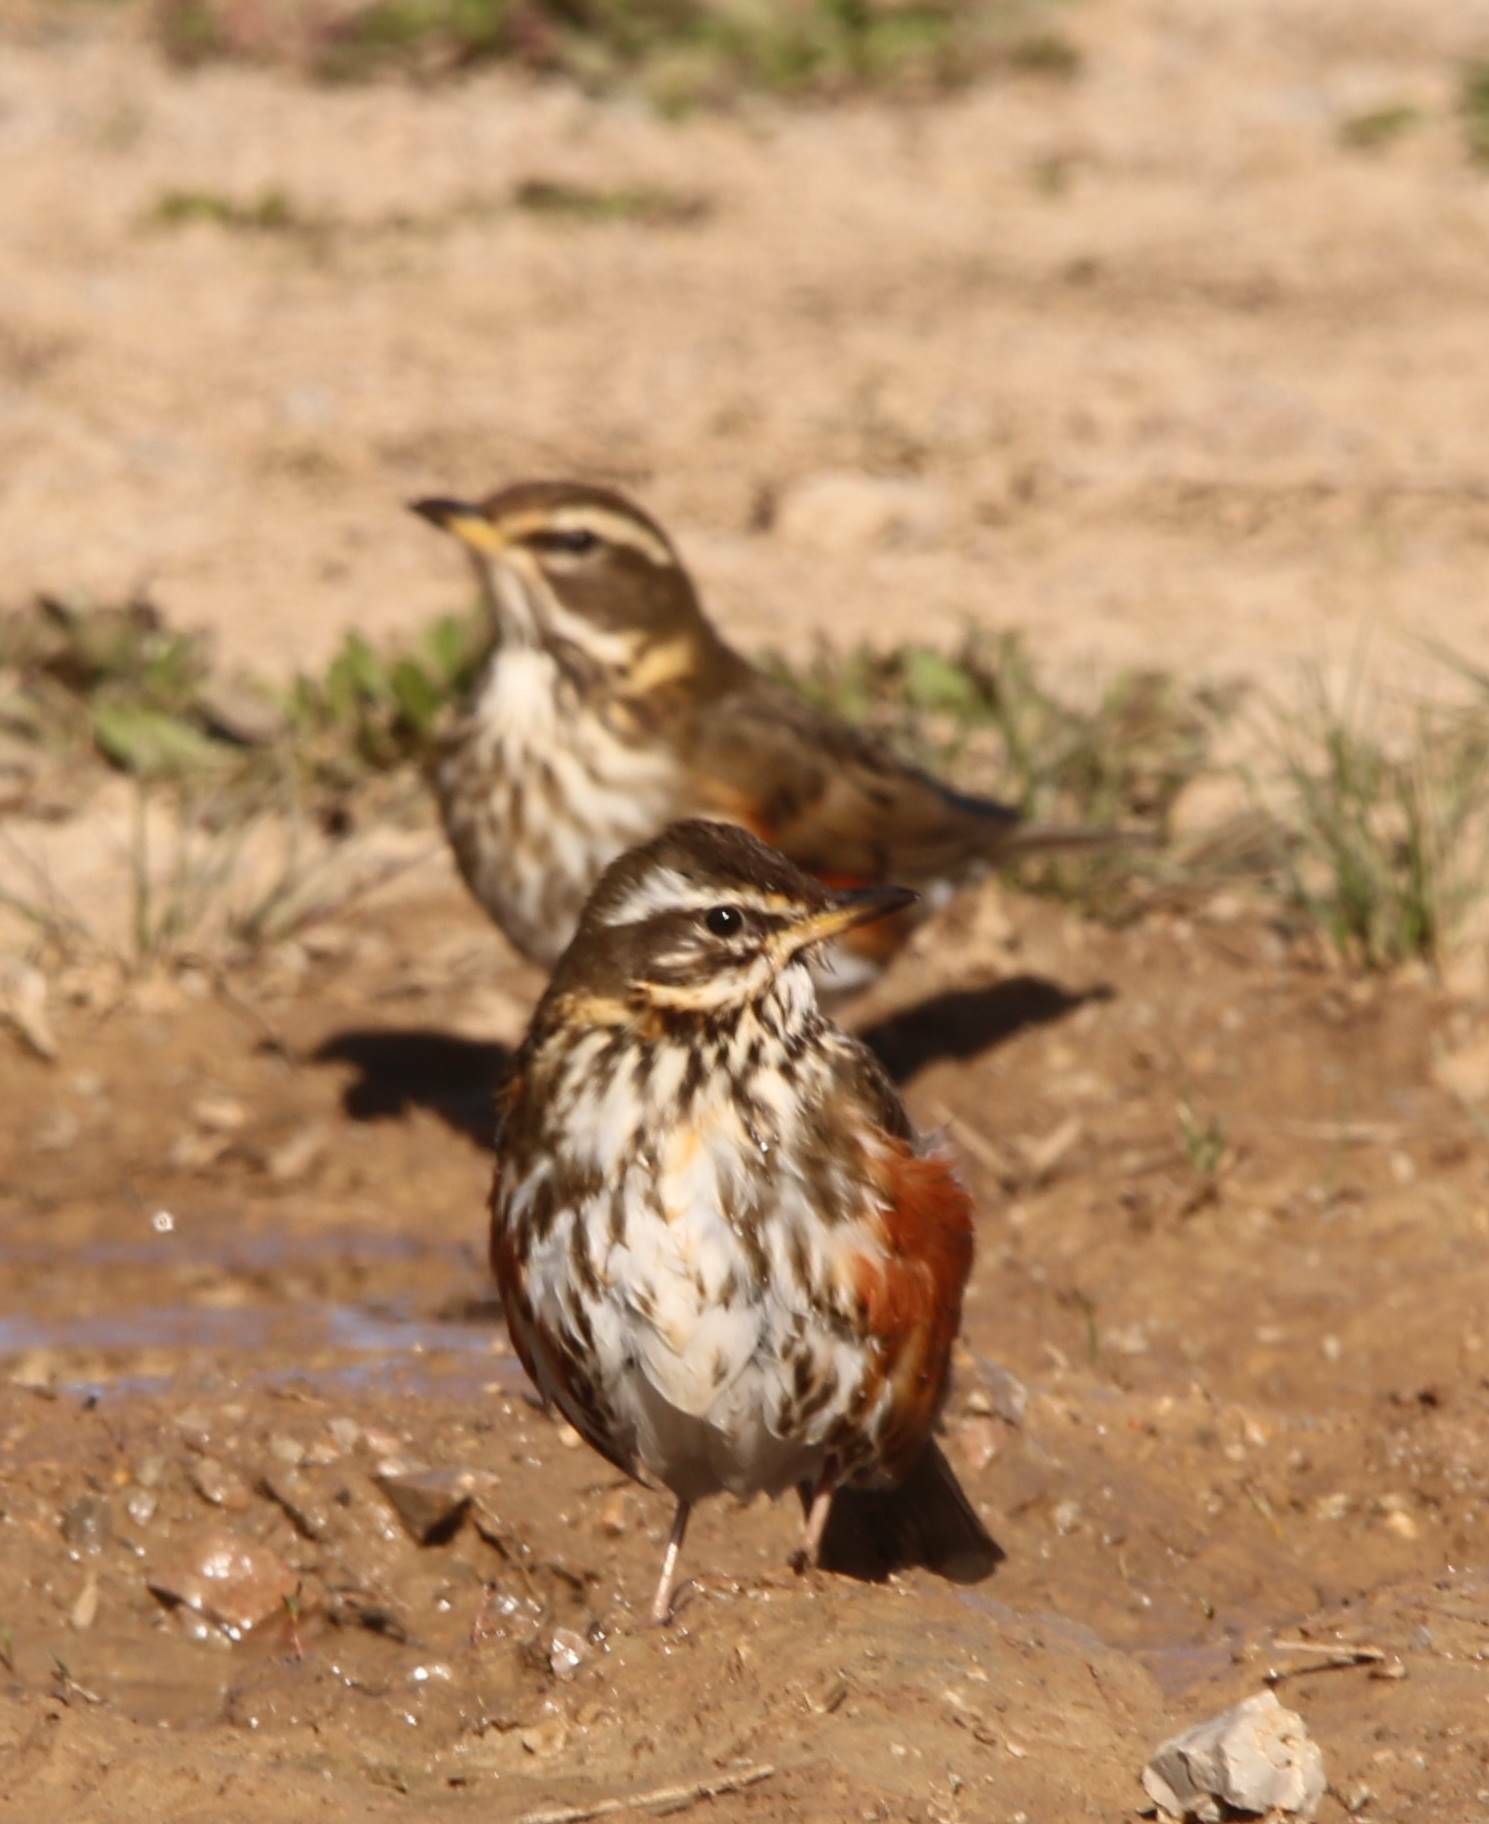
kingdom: Animalia
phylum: Chordata
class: Aves
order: Passeriformes
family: Turdidae
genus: Turdus
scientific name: Turdus iliacus
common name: Redwing
